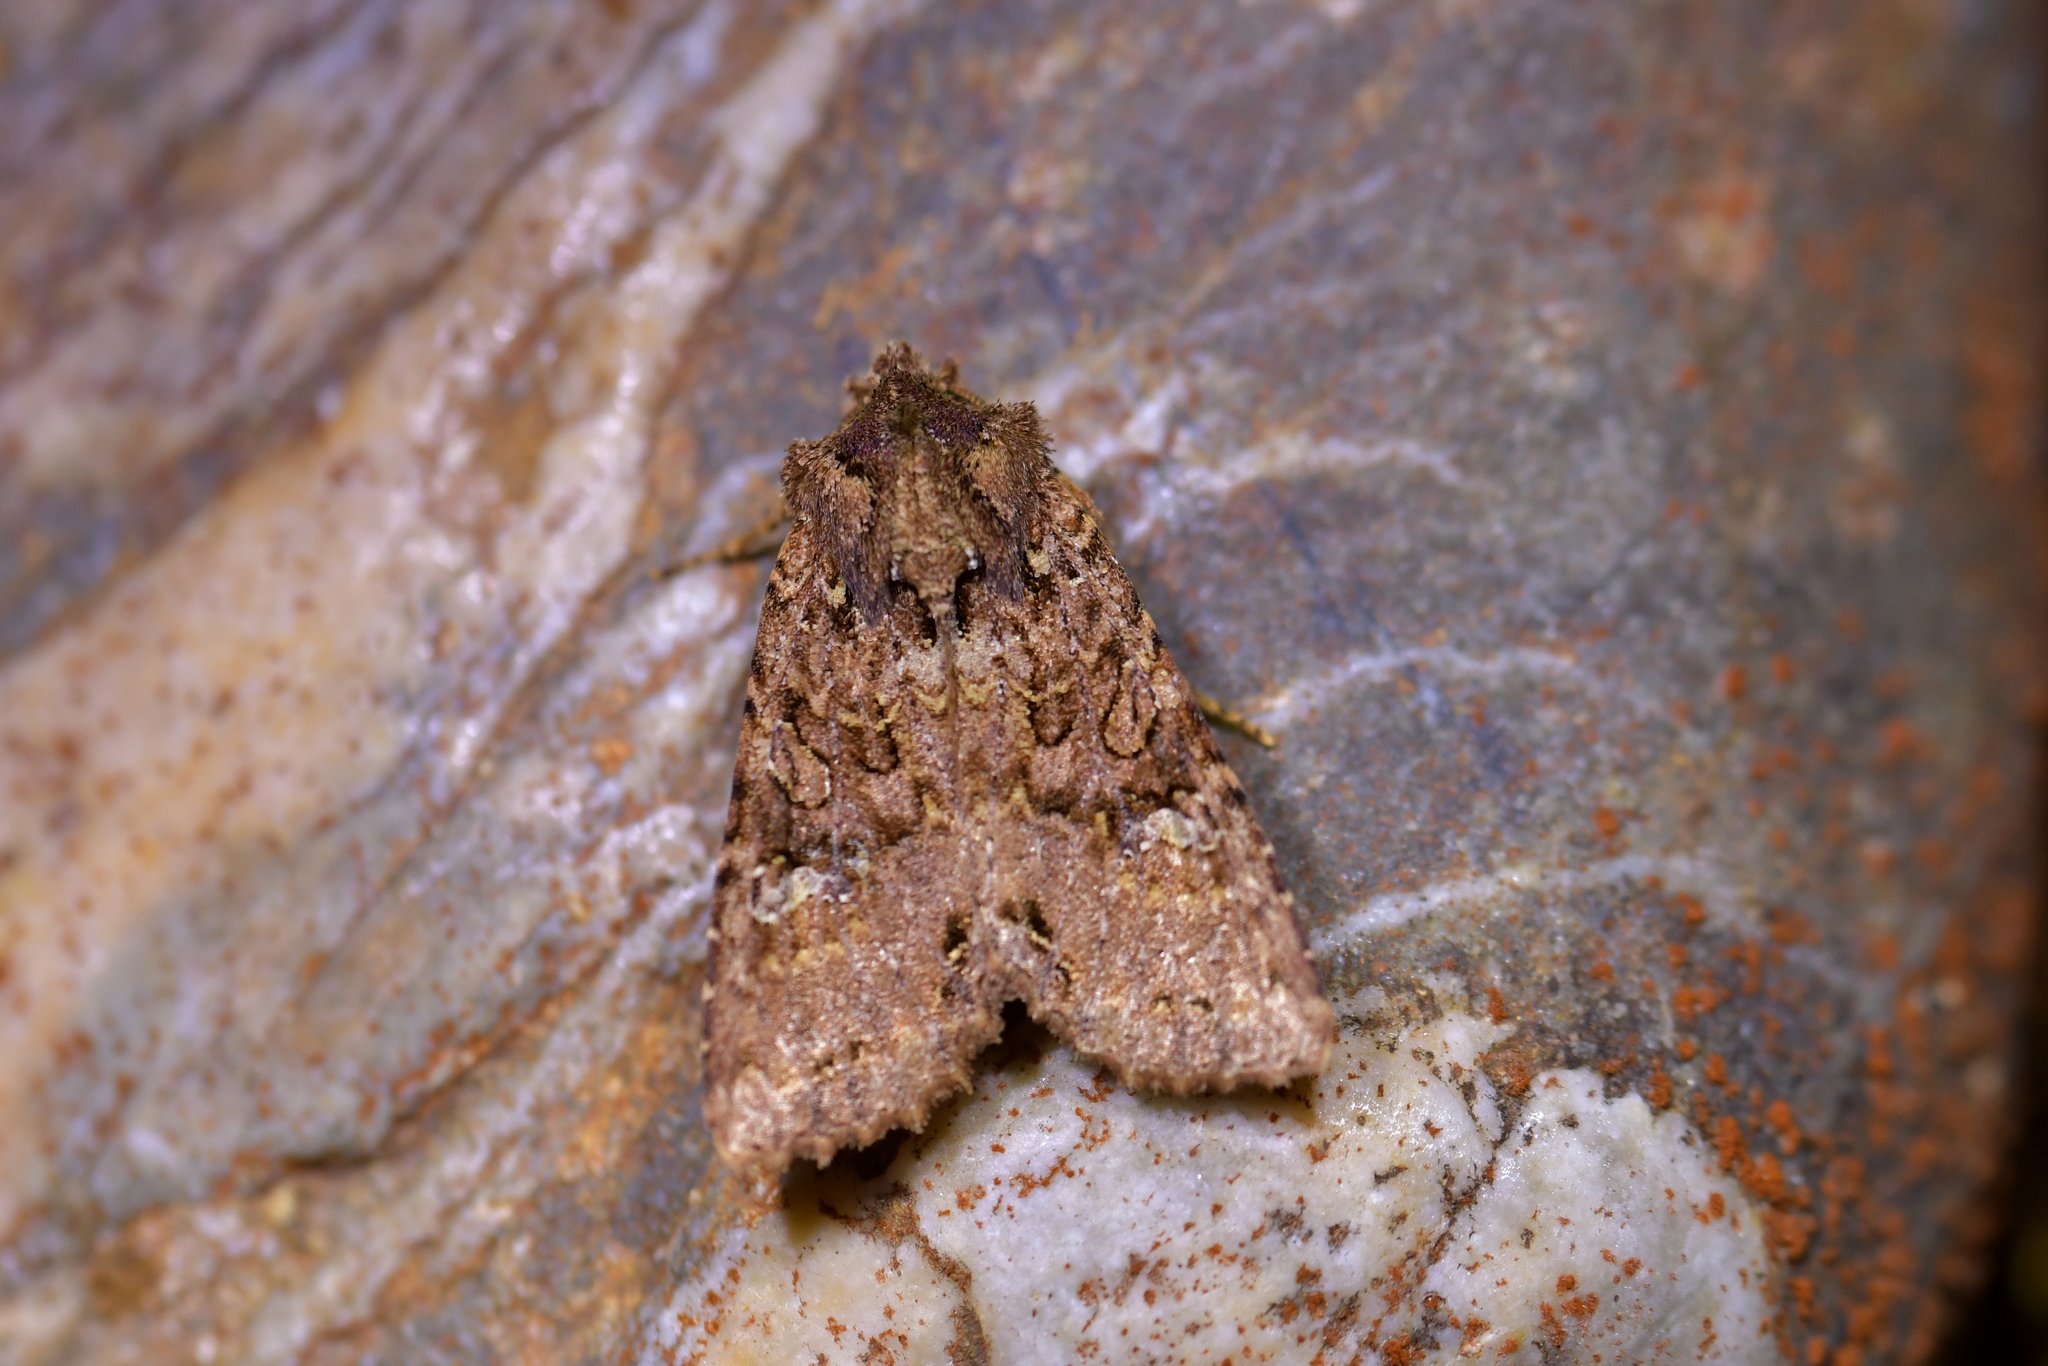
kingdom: Animalia
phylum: Arthropoda
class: Insecta
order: Lepidoptera
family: Noctuidae
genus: Meterana
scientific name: Meterana ochthistis
